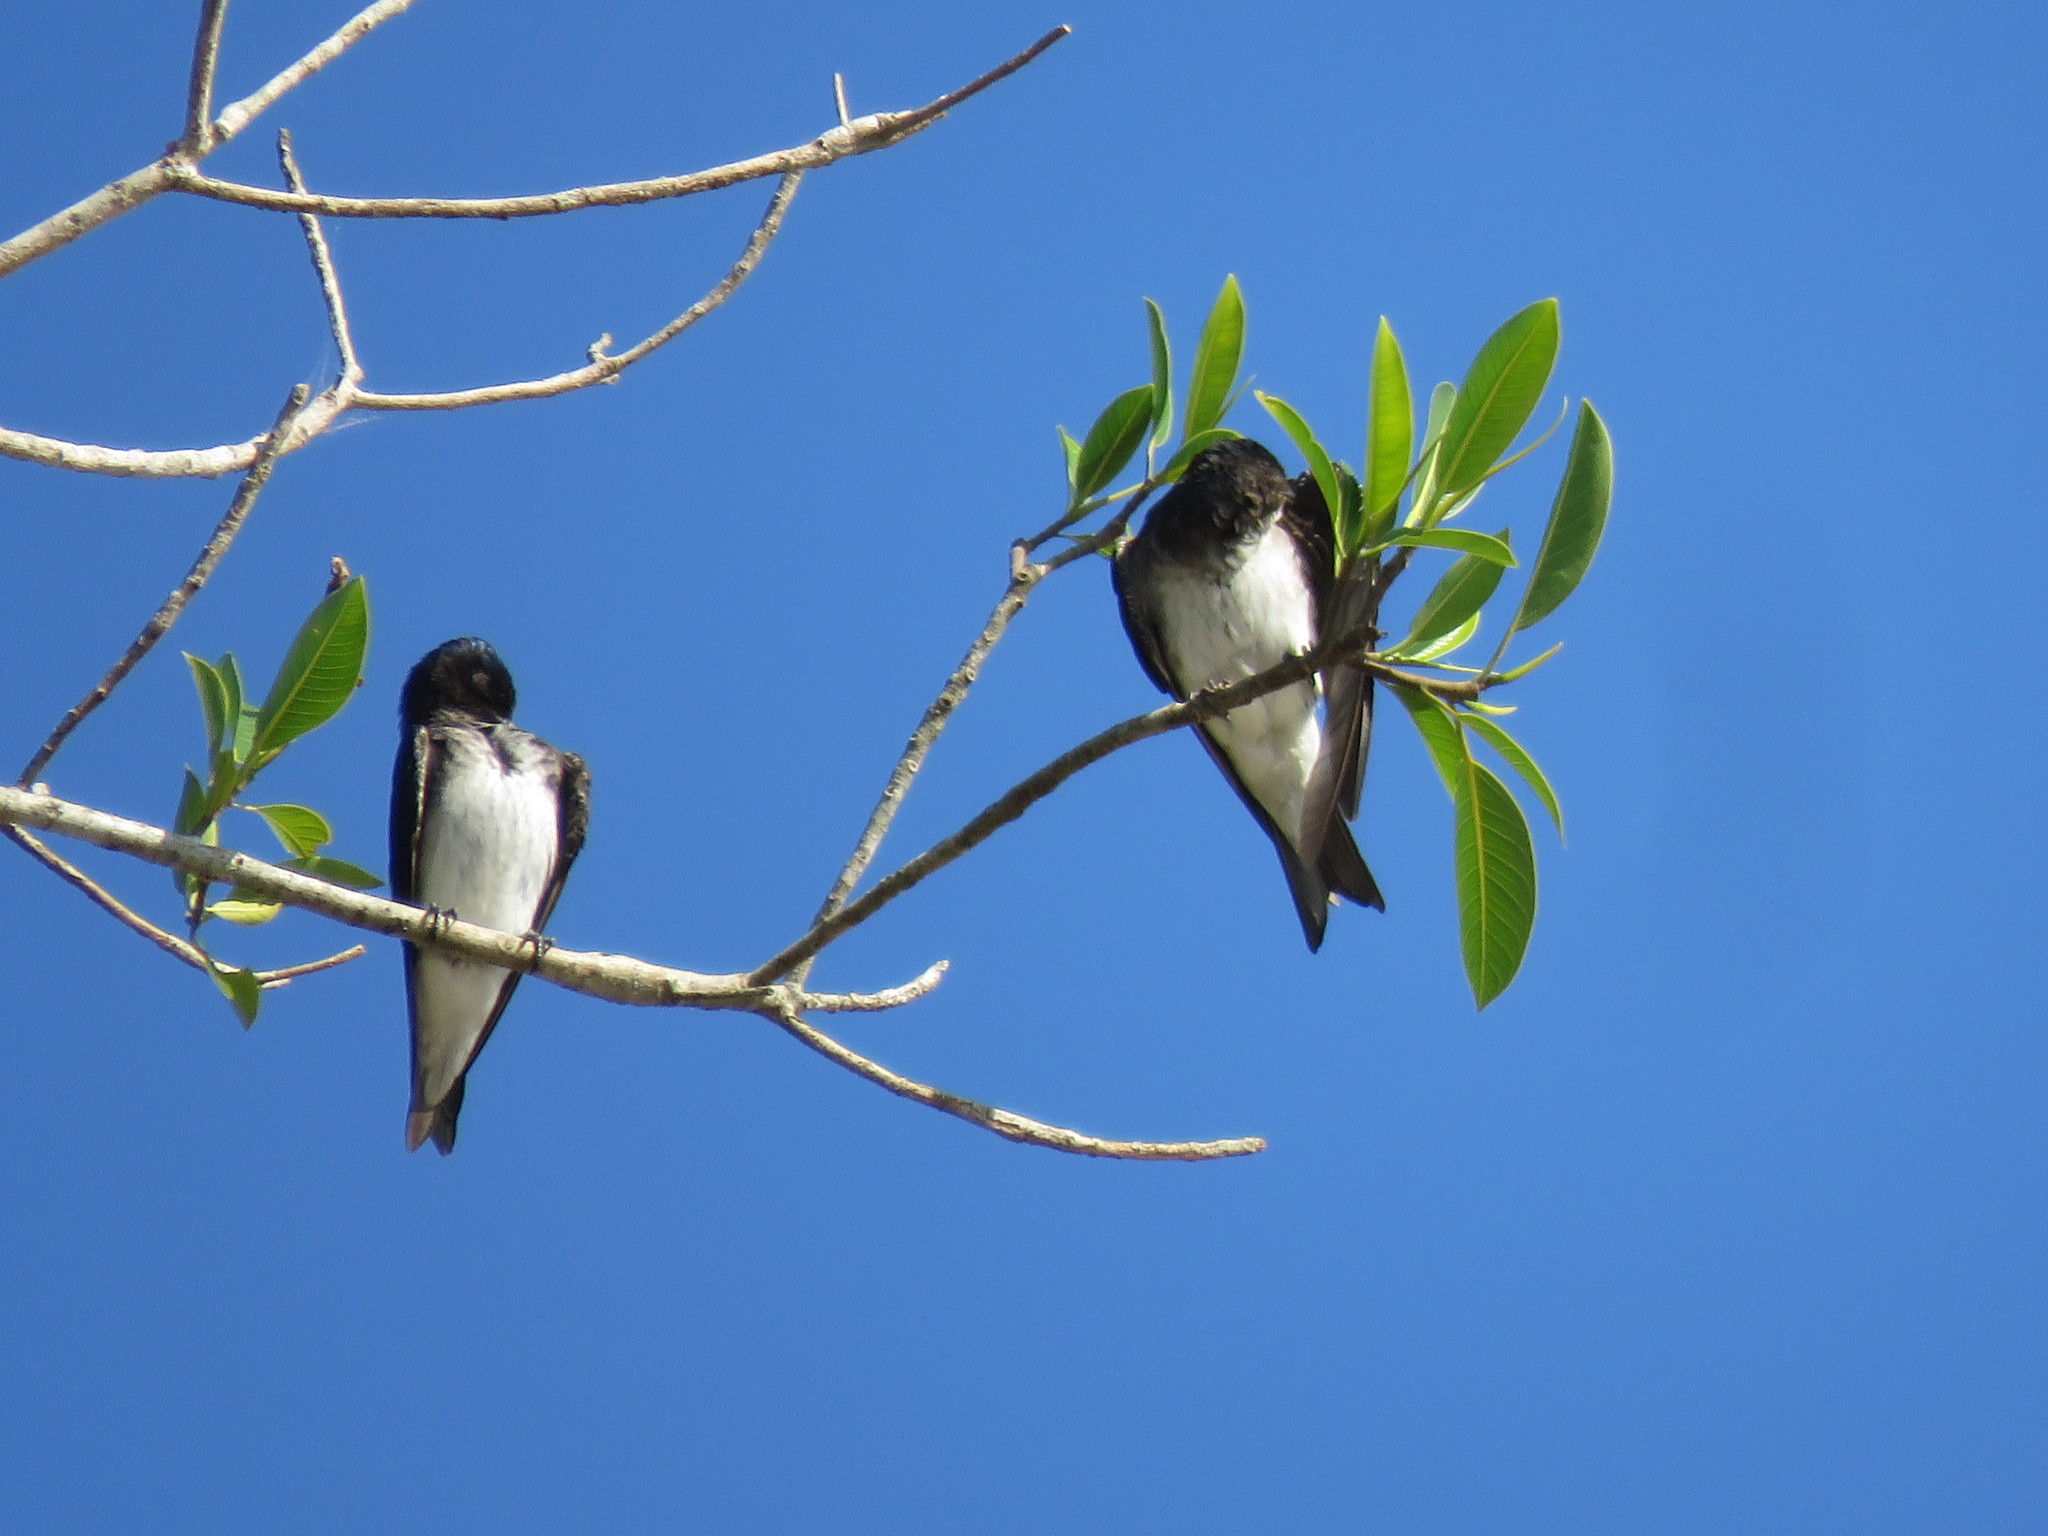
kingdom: Animalia
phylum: Chordata
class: Aves
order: Passeriformes
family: Hirundinidae
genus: Progne
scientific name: Progne chalybea
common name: Grey-breasted martin
